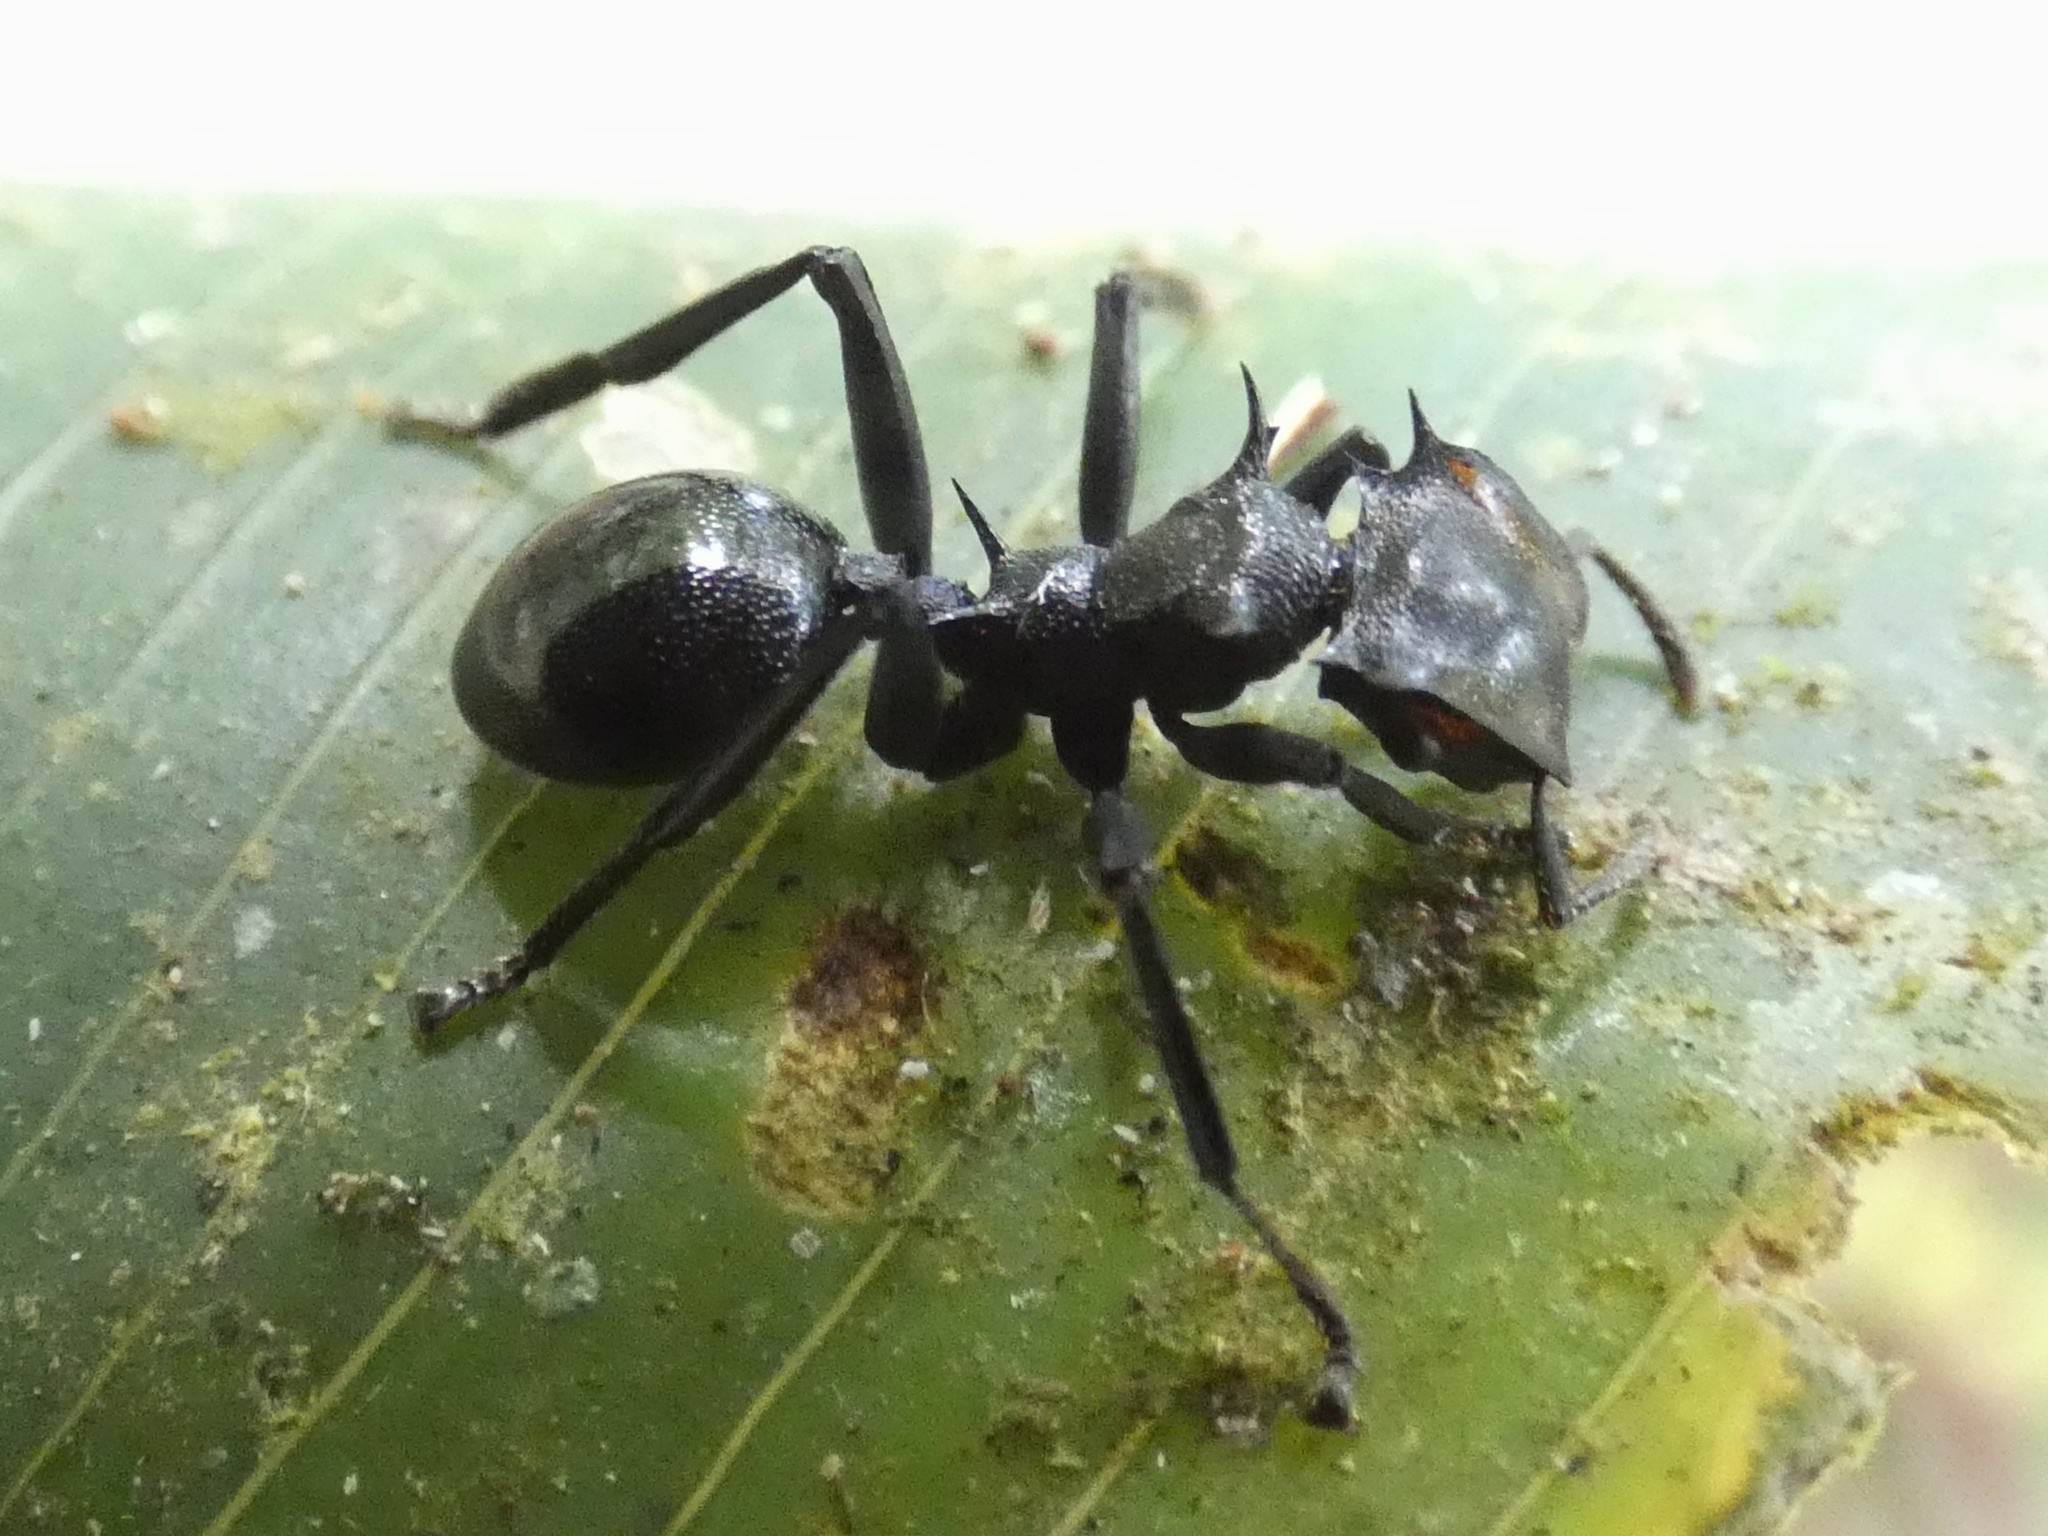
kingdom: Animalia
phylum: Arthropoda
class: Insecta
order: Hymenoptera
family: Formicidae
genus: Cephalotes
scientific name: Cephalotes atratus
